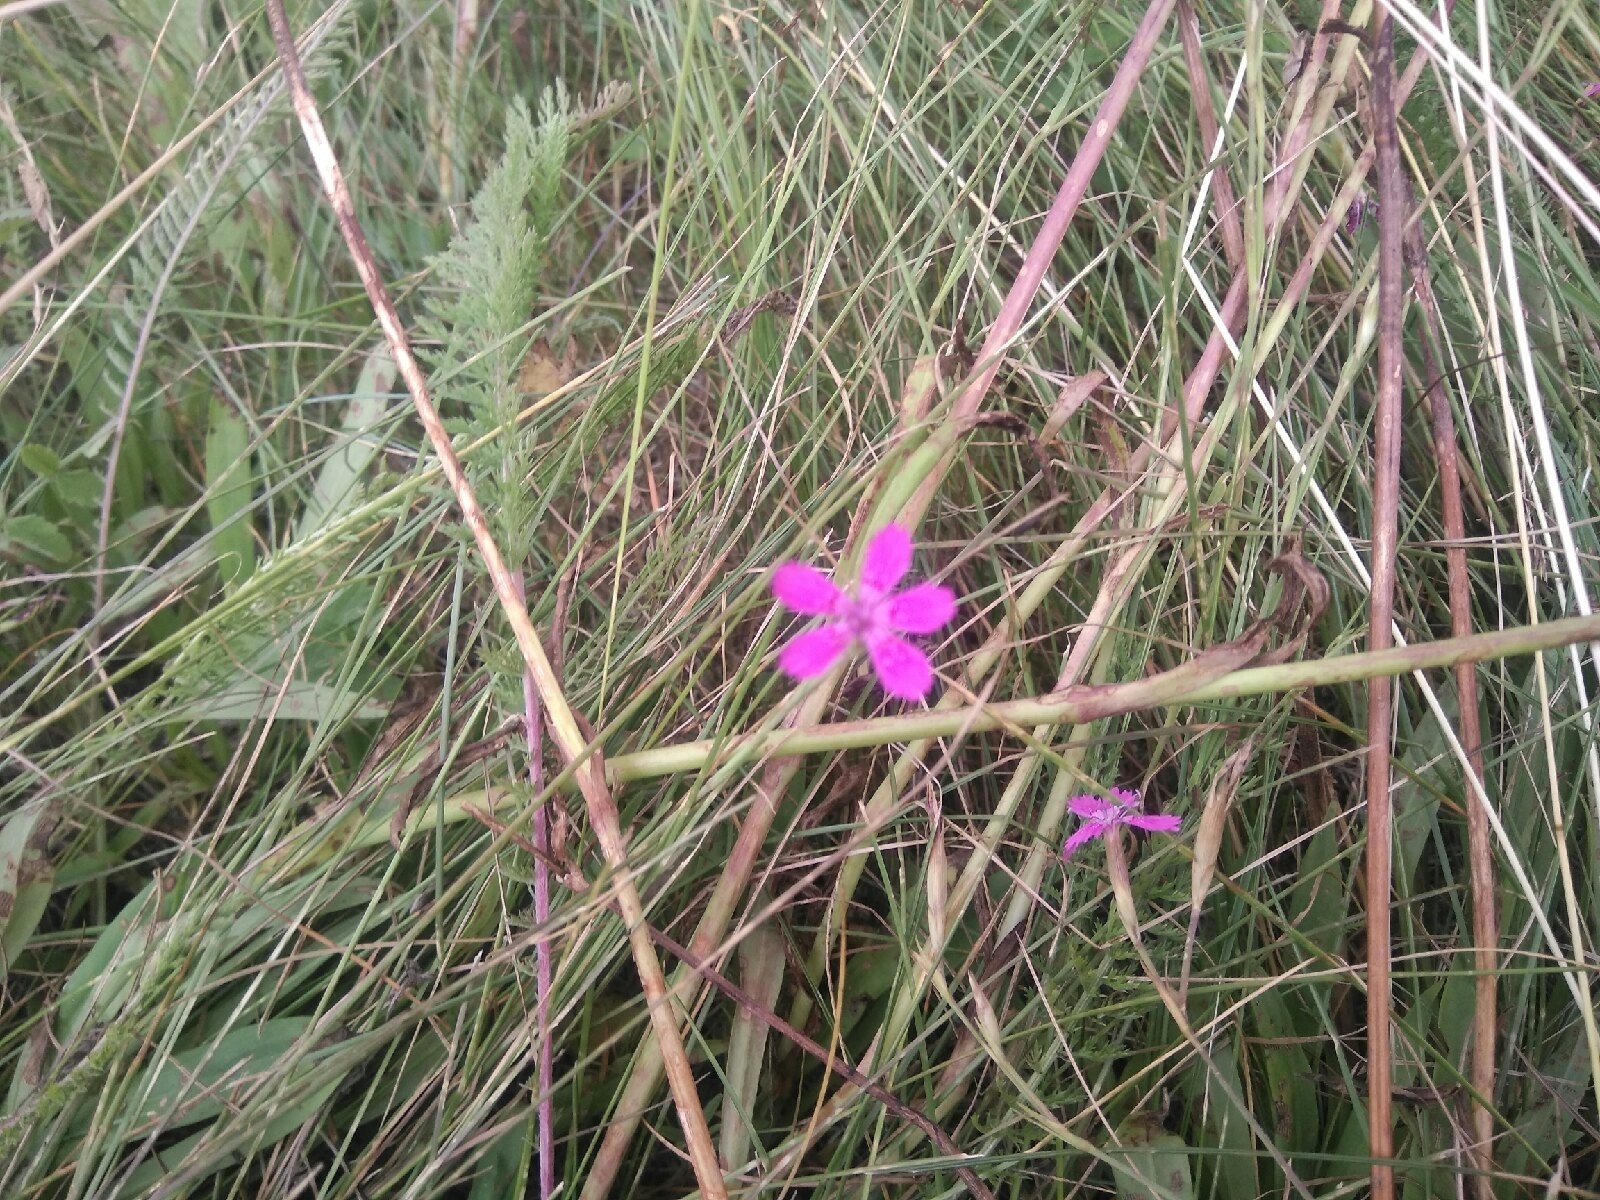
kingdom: Plantae
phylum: Tracheophyta
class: Magnoliopsida
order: Caryophyllales
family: Caryophyllaceae
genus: Dianthus
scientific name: Dianthus deltoides
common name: Maiden pink
